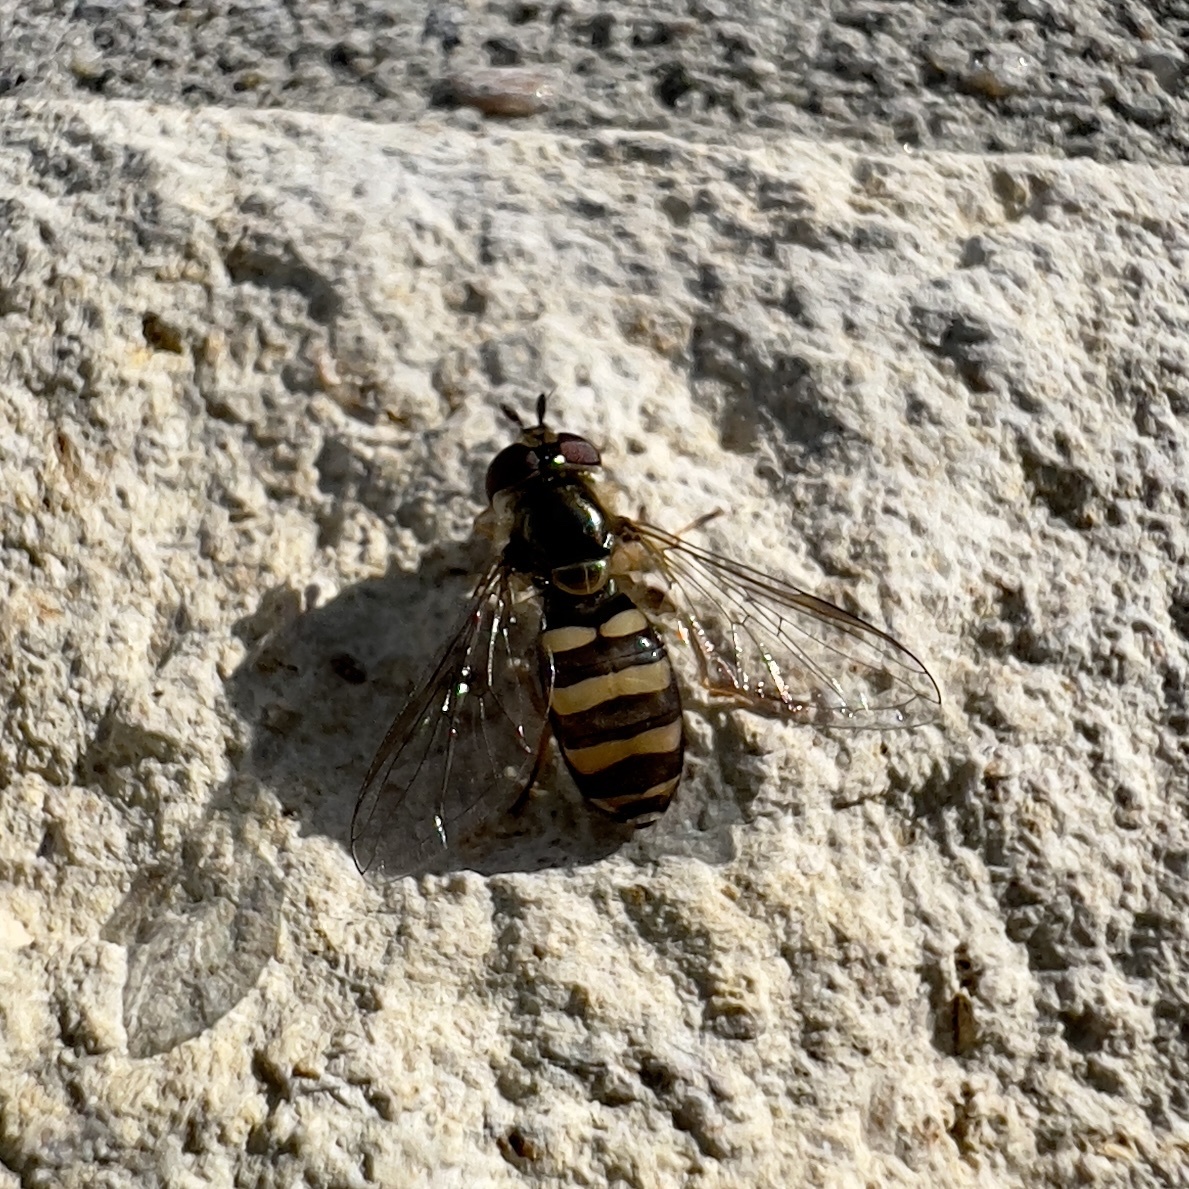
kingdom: Animalia
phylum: Arthropoda
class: Insecta
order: Diptera
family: Syrphidae
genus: Eupeodes
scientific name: Eupeodes
